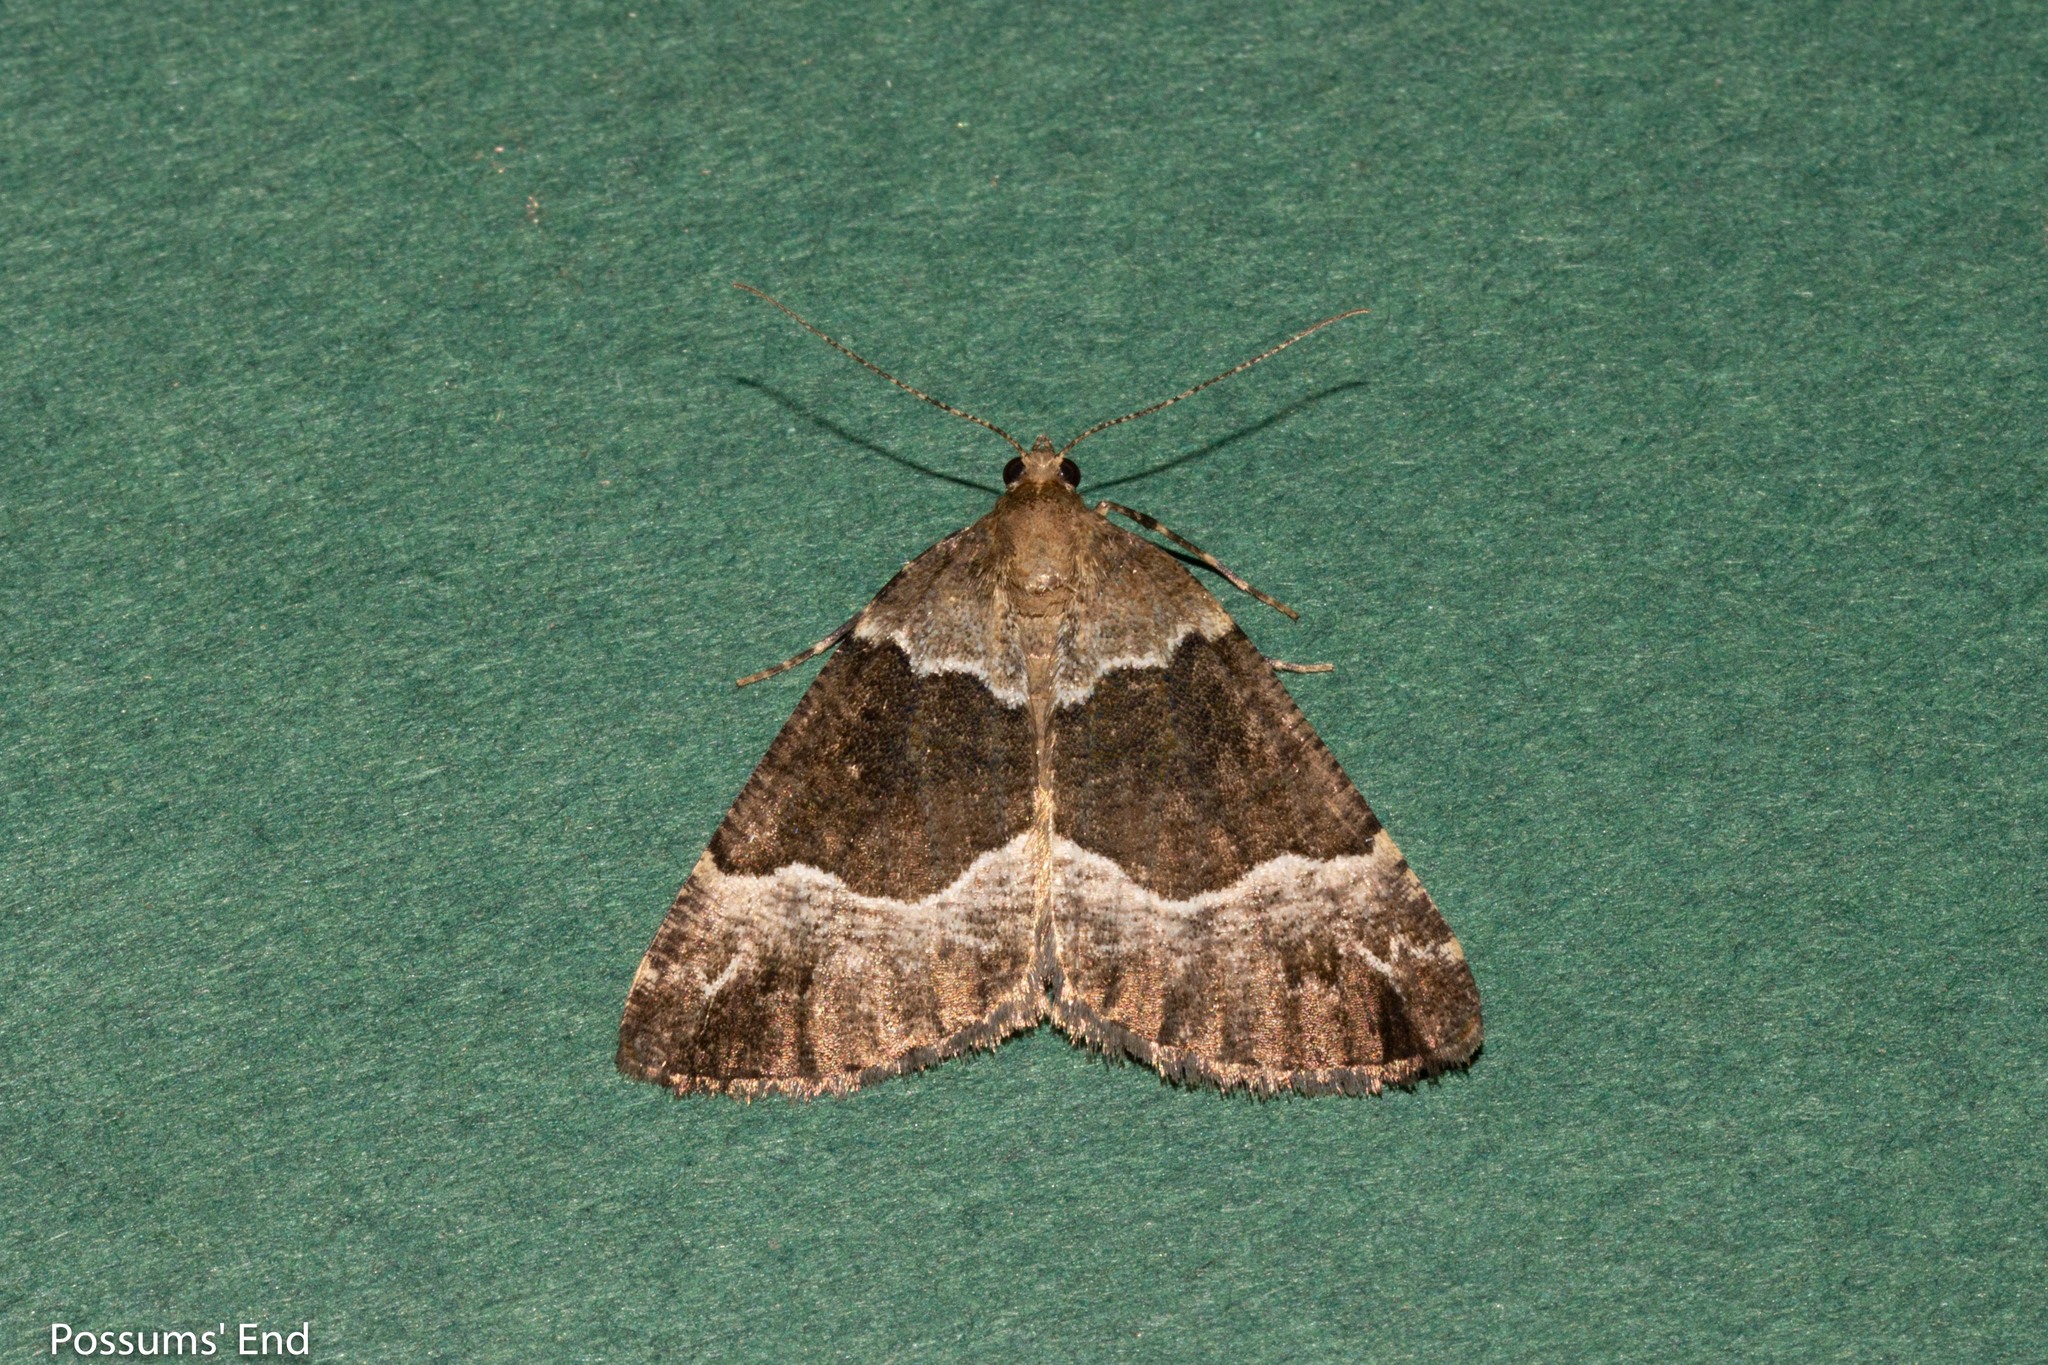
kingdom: Animalia
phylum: Arthropoda
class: Insecta
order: Lepidoptera
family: Geometridae
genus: Pseudocoremia
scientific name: Pseudocoremia
